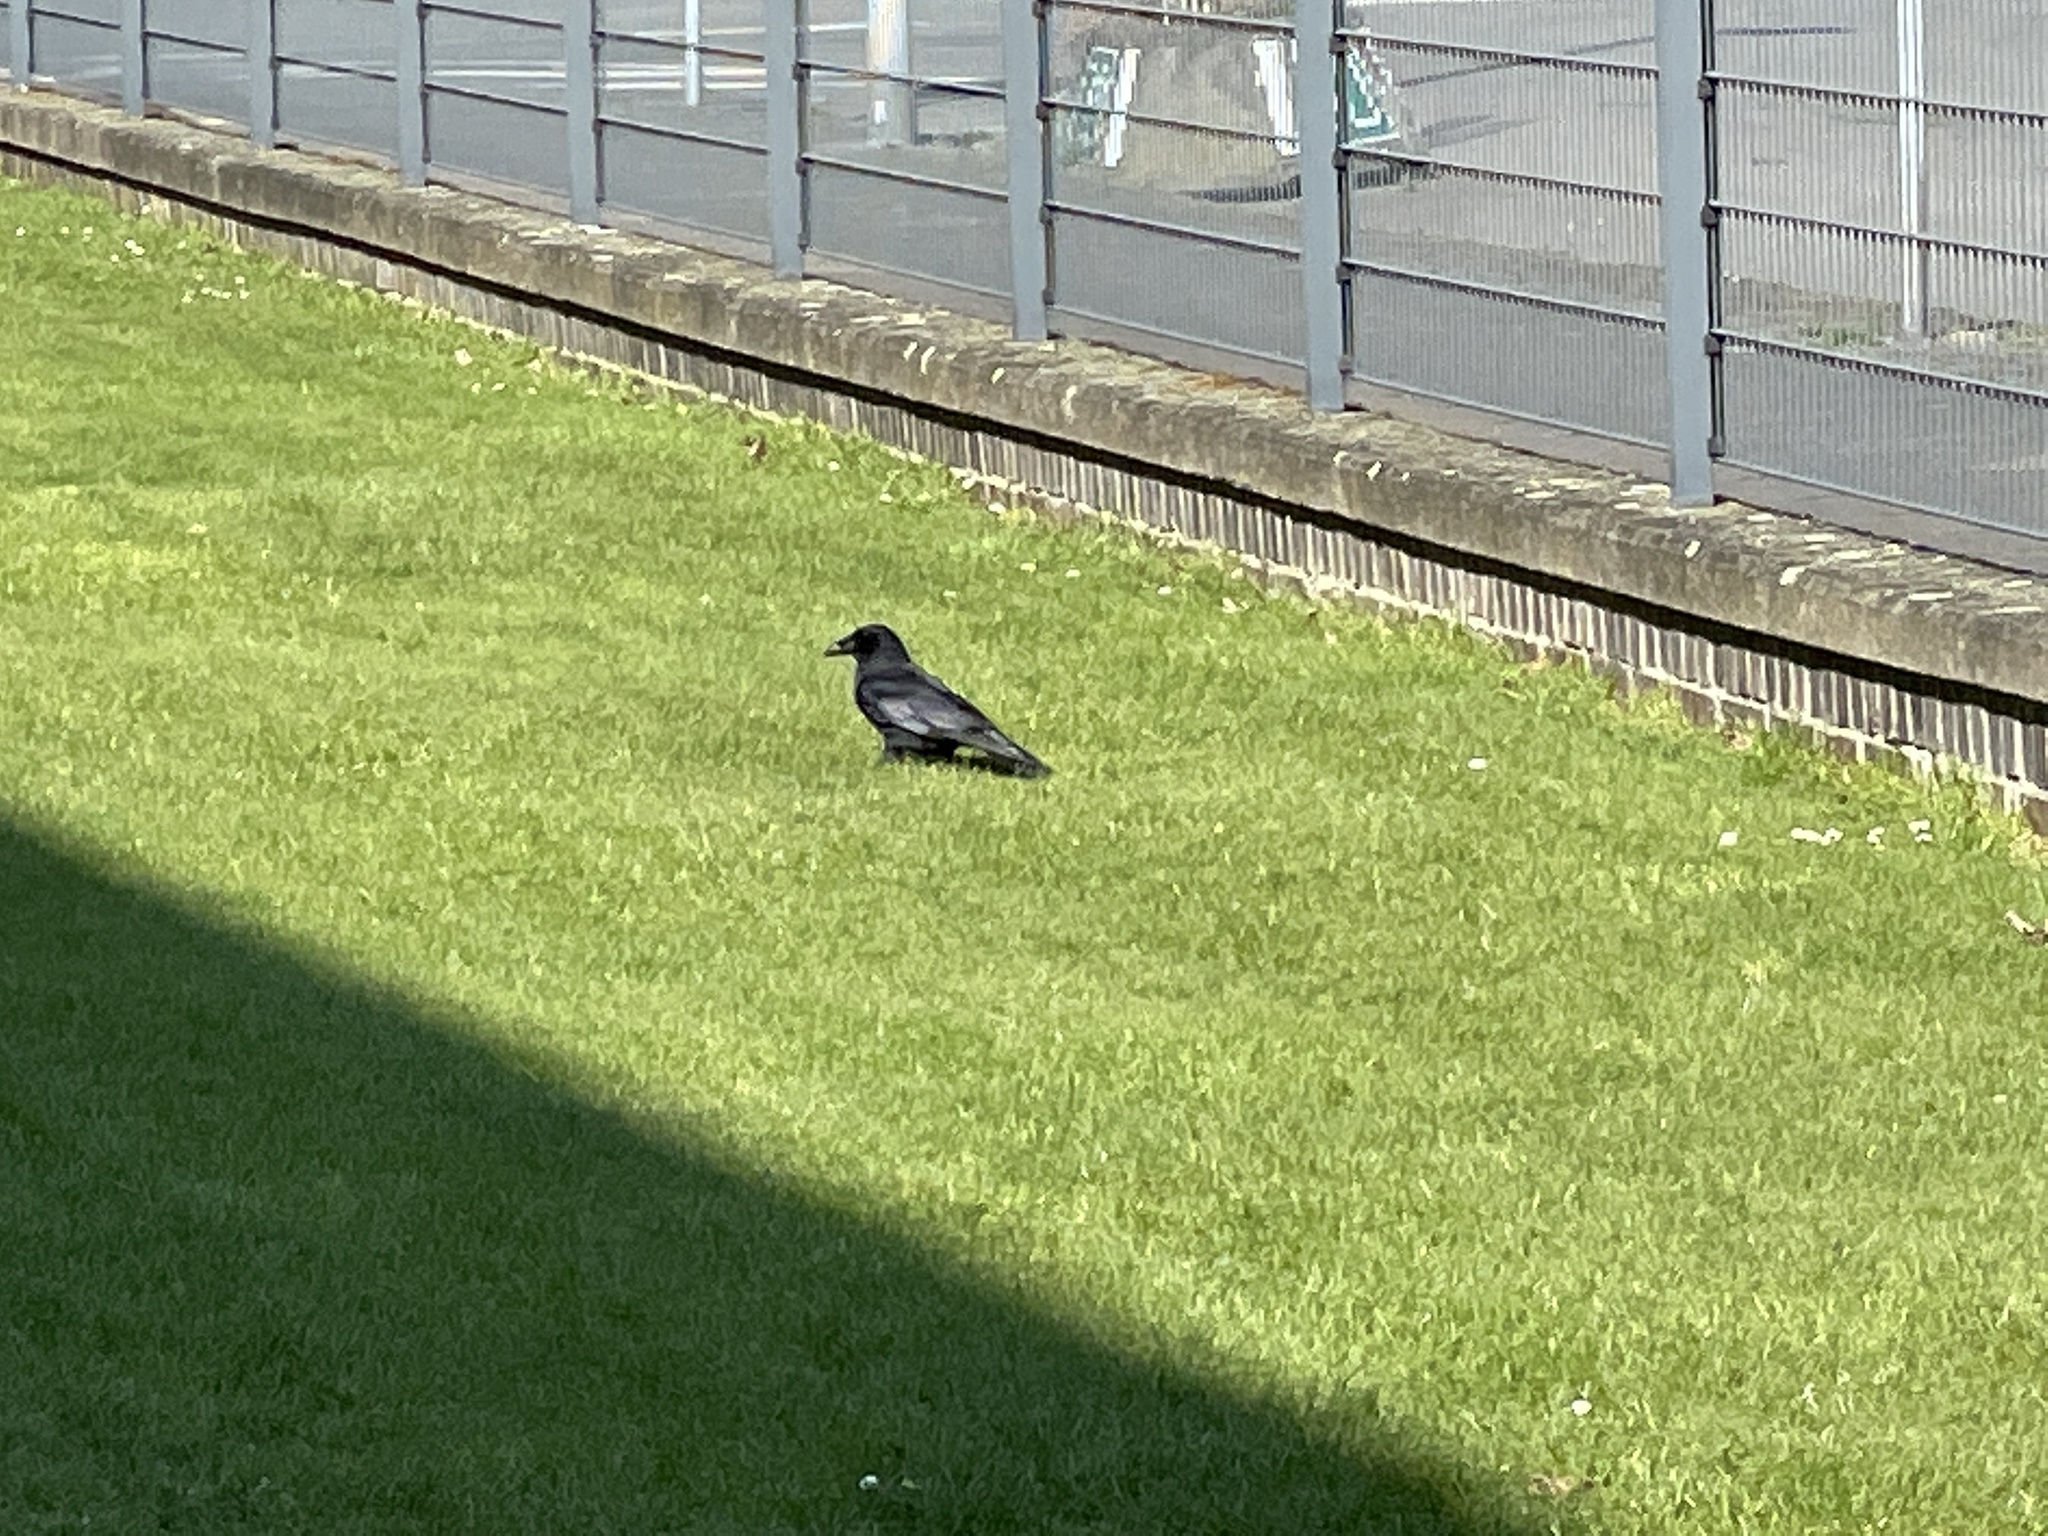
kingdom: Animalia
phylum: Chordata
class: Aves
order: Passeriformes
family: Corvidae
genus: Corvus
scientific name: Corvus corone
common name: Carrion crow
